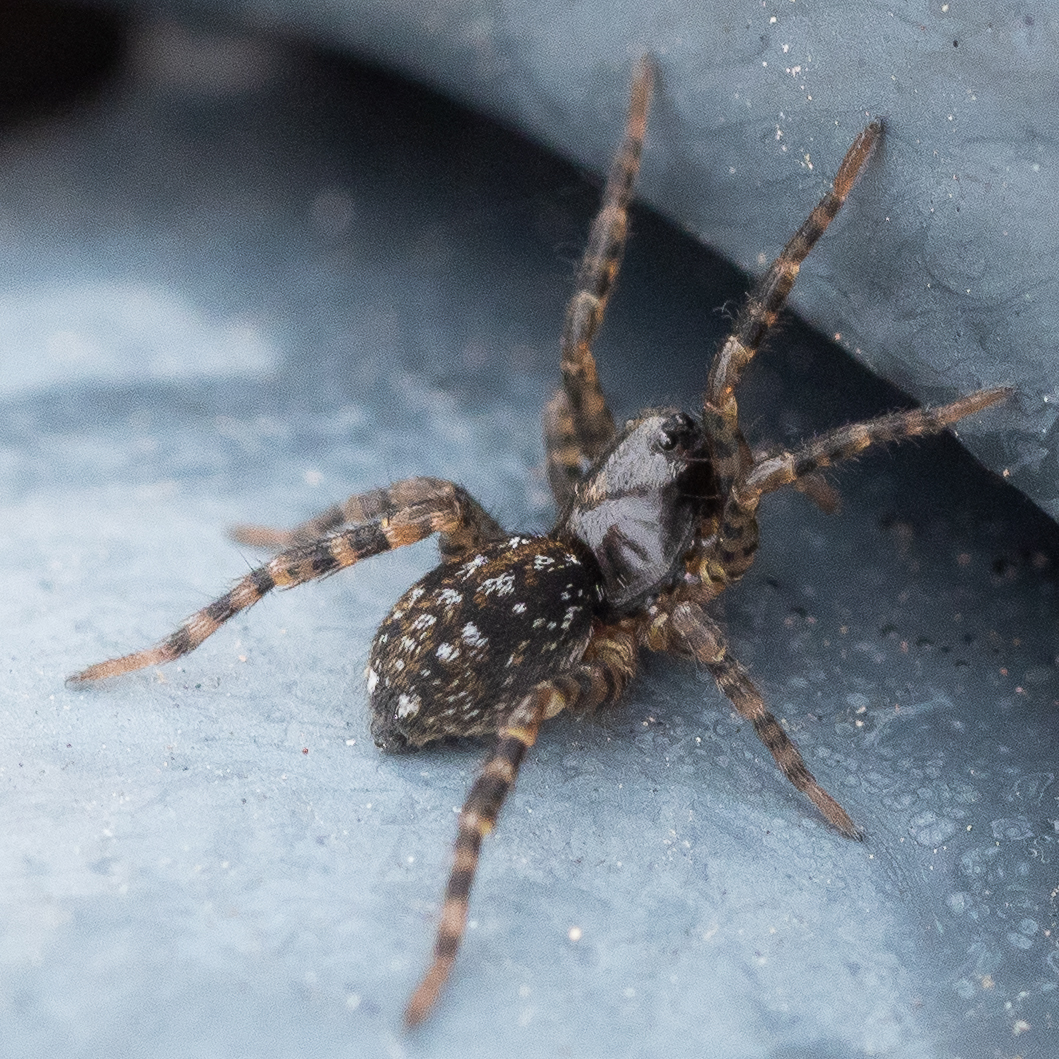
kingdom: Animalia
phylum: Arthropoda
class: Arachnida
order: Araneae
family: Lycosidae
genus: Arctosa
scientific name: Arctosa leopardus
